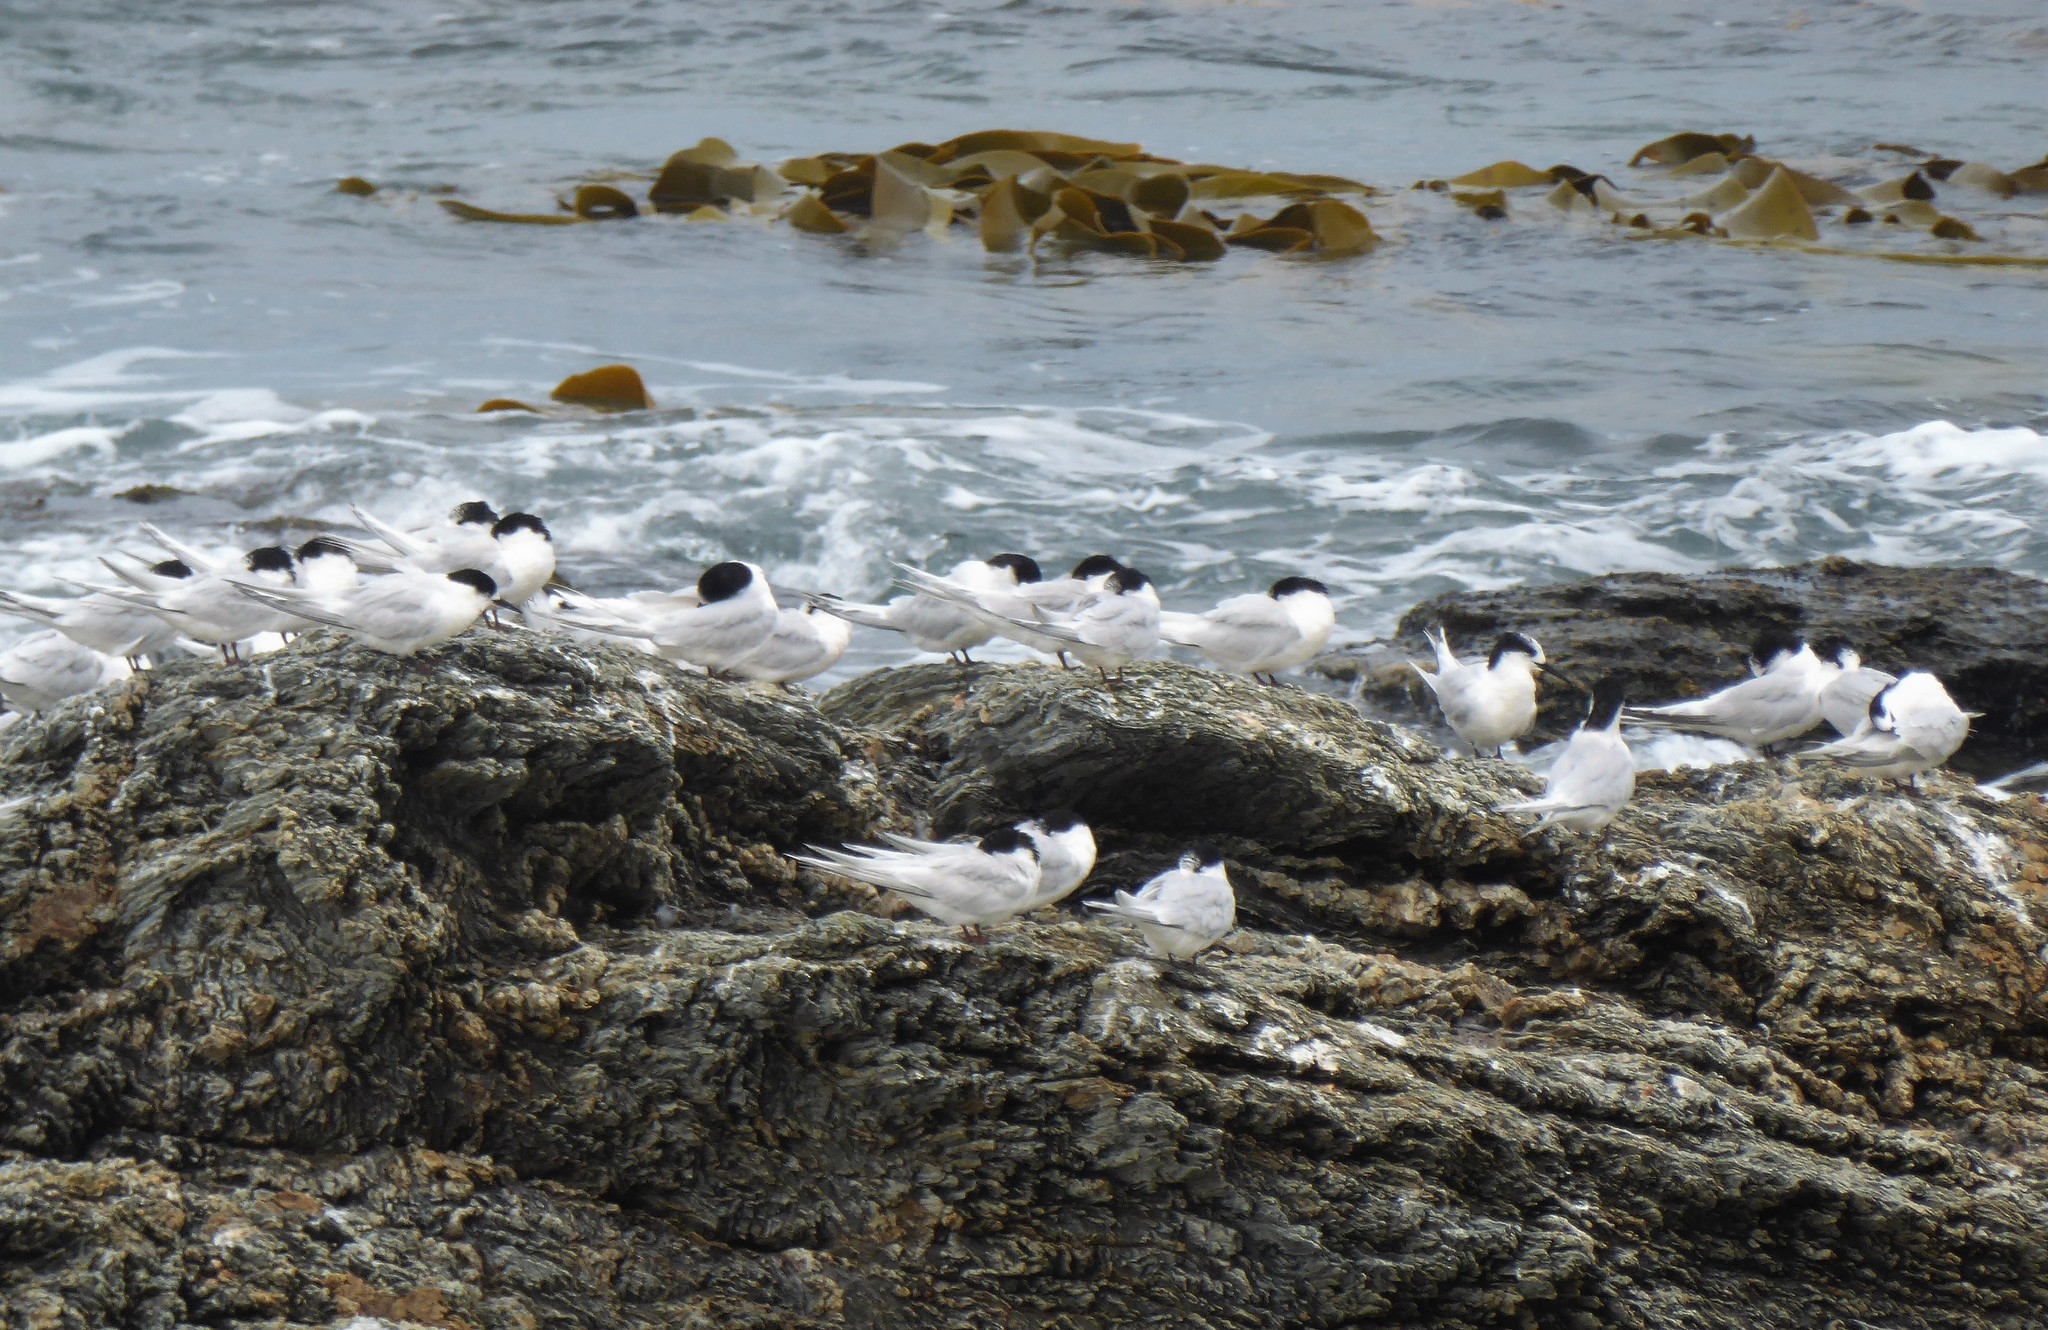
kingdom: Animalia
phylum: Chordata
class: Aves
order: Charadriiformes
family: Laridae
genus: Sterna
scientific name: Sterna striata
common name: White-fronted tern
